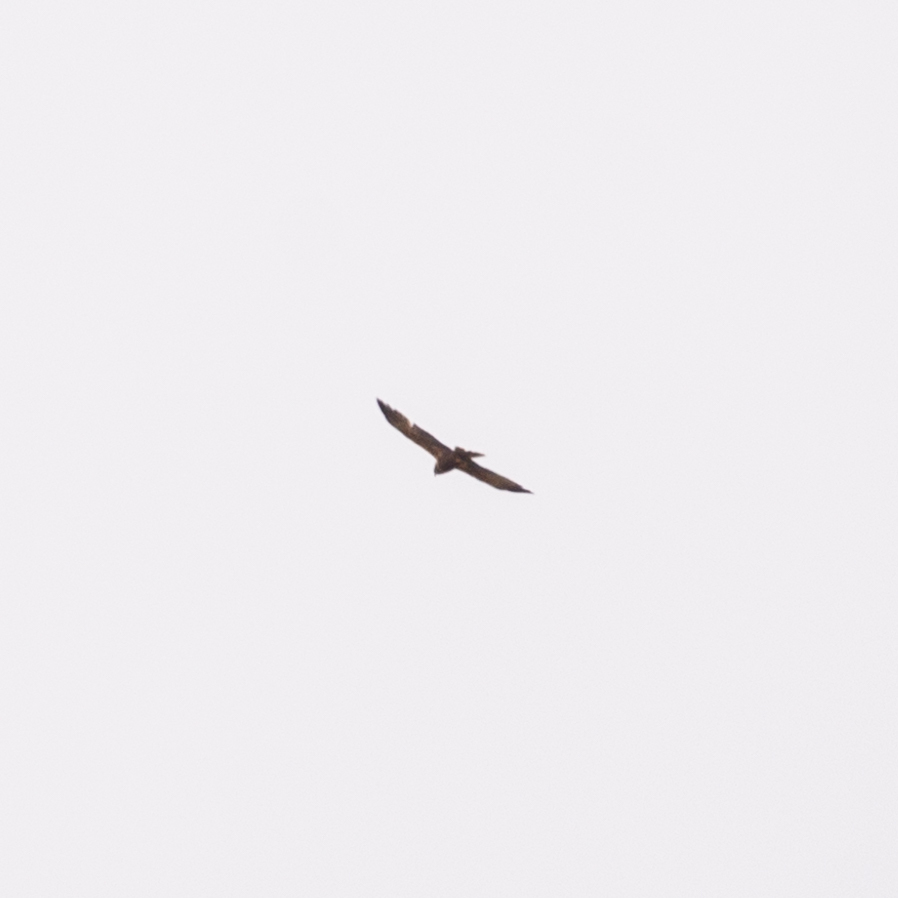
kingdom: Animalia
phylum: Chordata
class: Aves
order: Accipitriformes
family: Accipitridae
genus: Circus
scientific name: Circus aeruginosus
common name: Western marsh harrier
